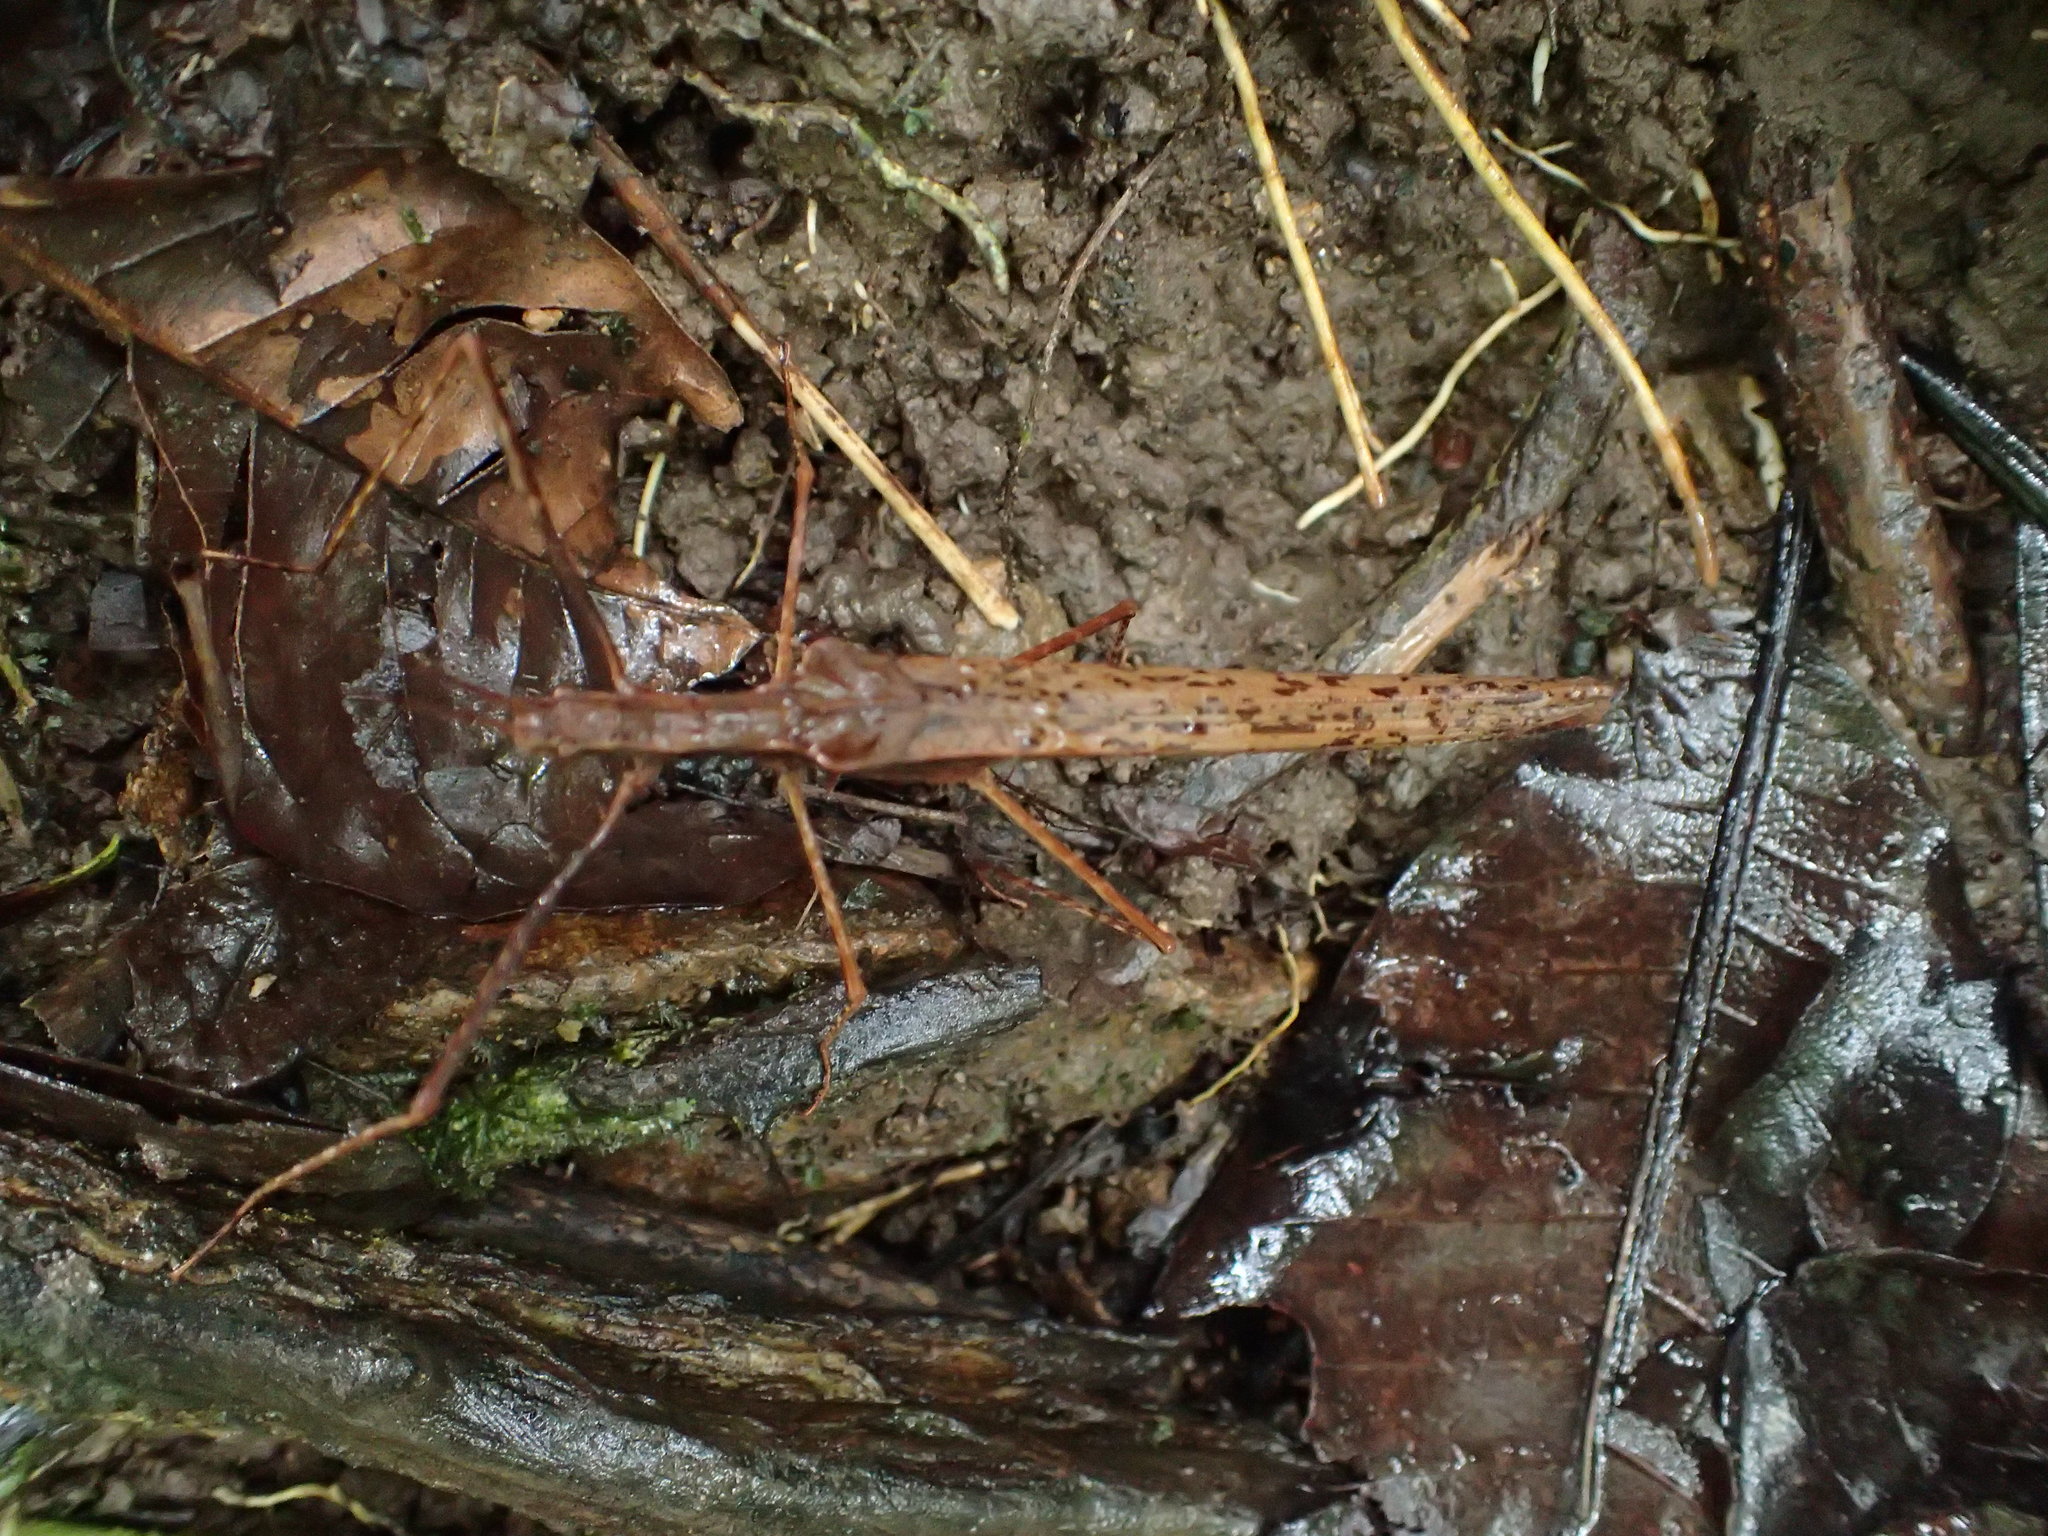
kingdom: Animalia
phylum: Arthropoda
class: Insecta
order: Phasmida
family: Pseudophasmatidae
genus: Pseudophasma
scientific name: Pseudophasma unicolor
